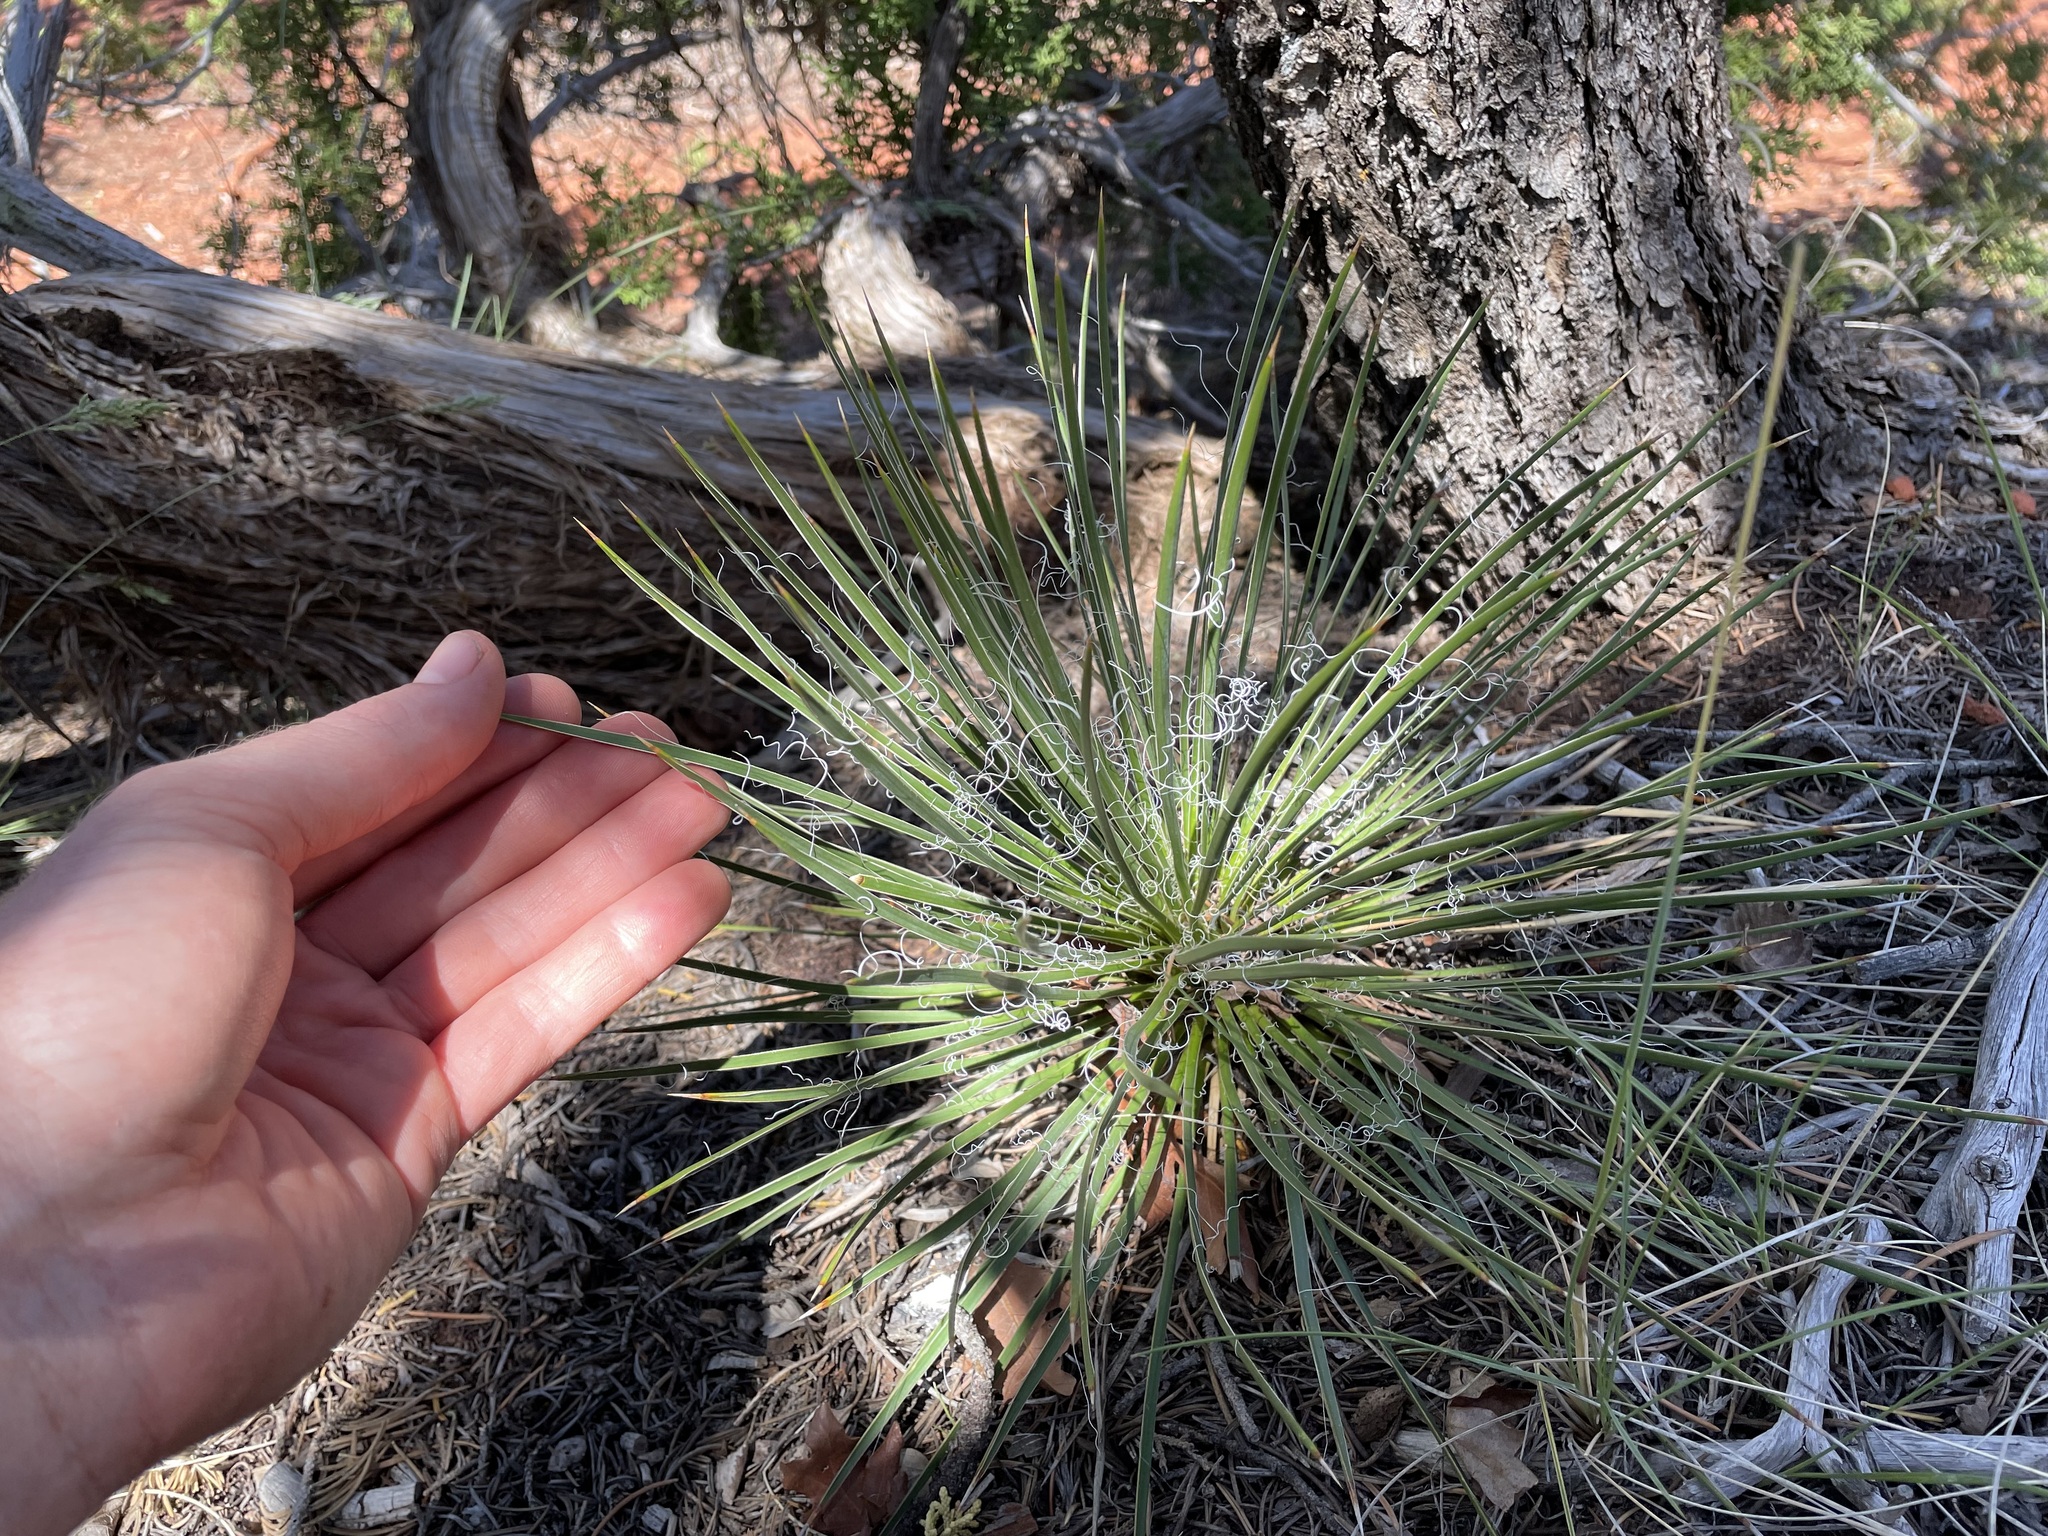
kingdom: Plantae
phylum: Tracheophyta
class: Liliopsida
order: Asparagales
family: Asparagaceae
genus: Yucca
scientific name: Yucca baileyi
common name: Alpine yucca
